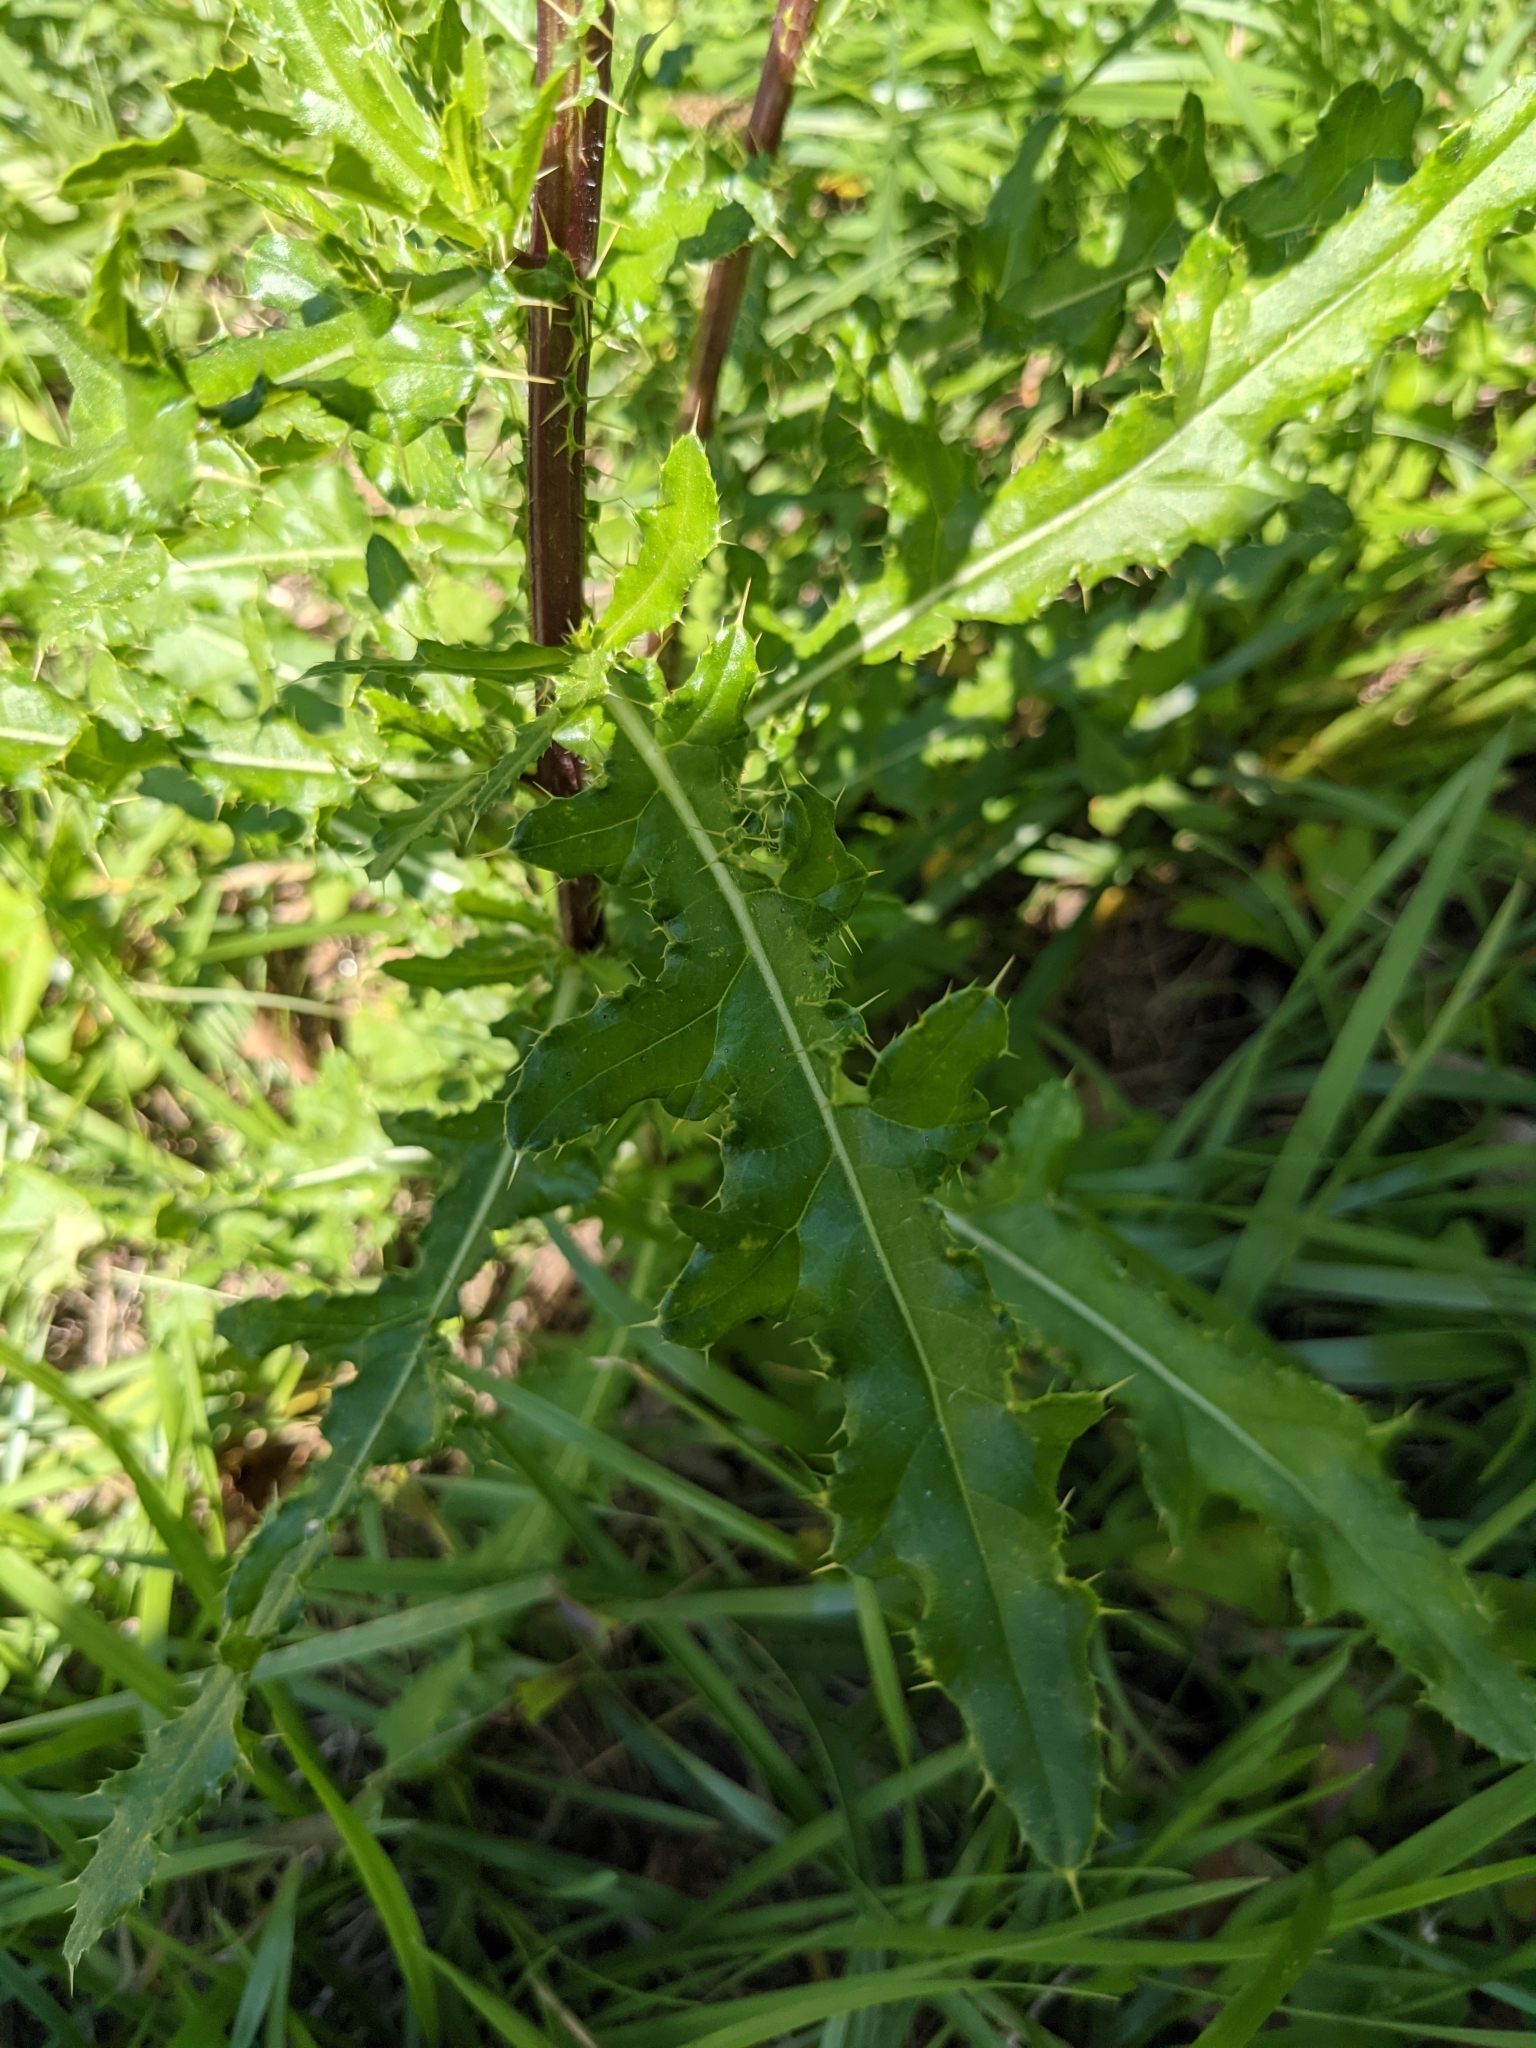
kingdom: Plantae
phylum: Tracheophyta
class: Magnoliopsida
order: Asterales
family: Asteraceae
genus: Cirsium
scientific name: Cirsium arvense
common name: Creeping thistle
